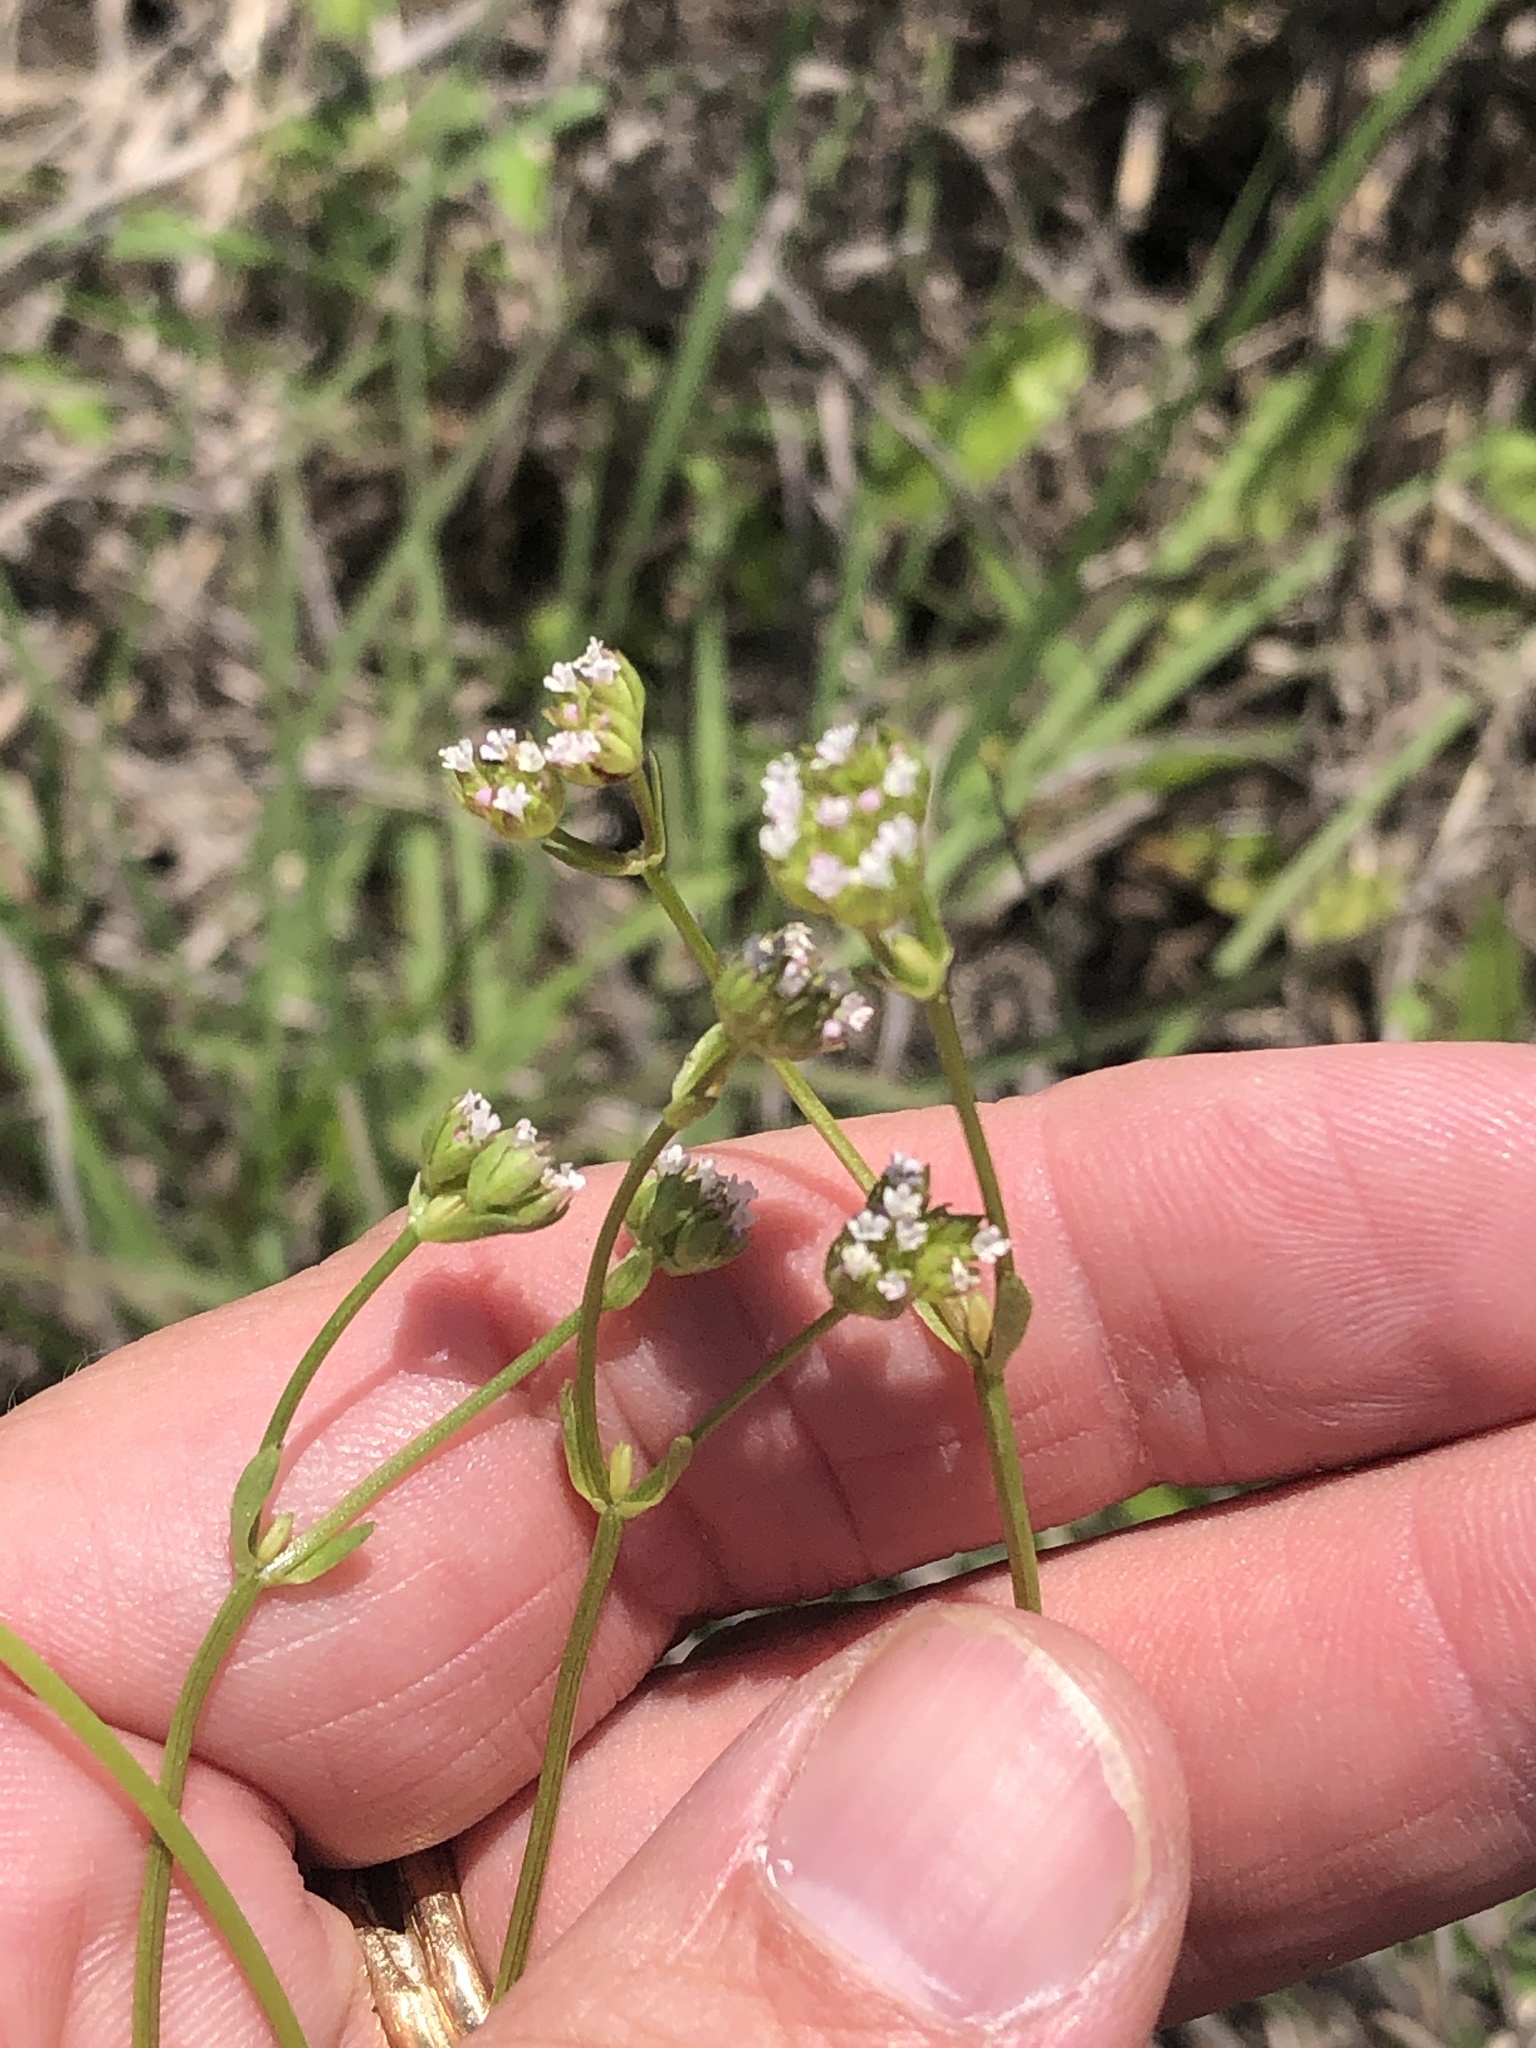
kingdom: Plantae
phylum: Tracheophyta
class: Magnoliopsida
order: Dipsacales
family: Caprifoliaceae
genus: Valerianella
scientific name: Valerianella radiata
